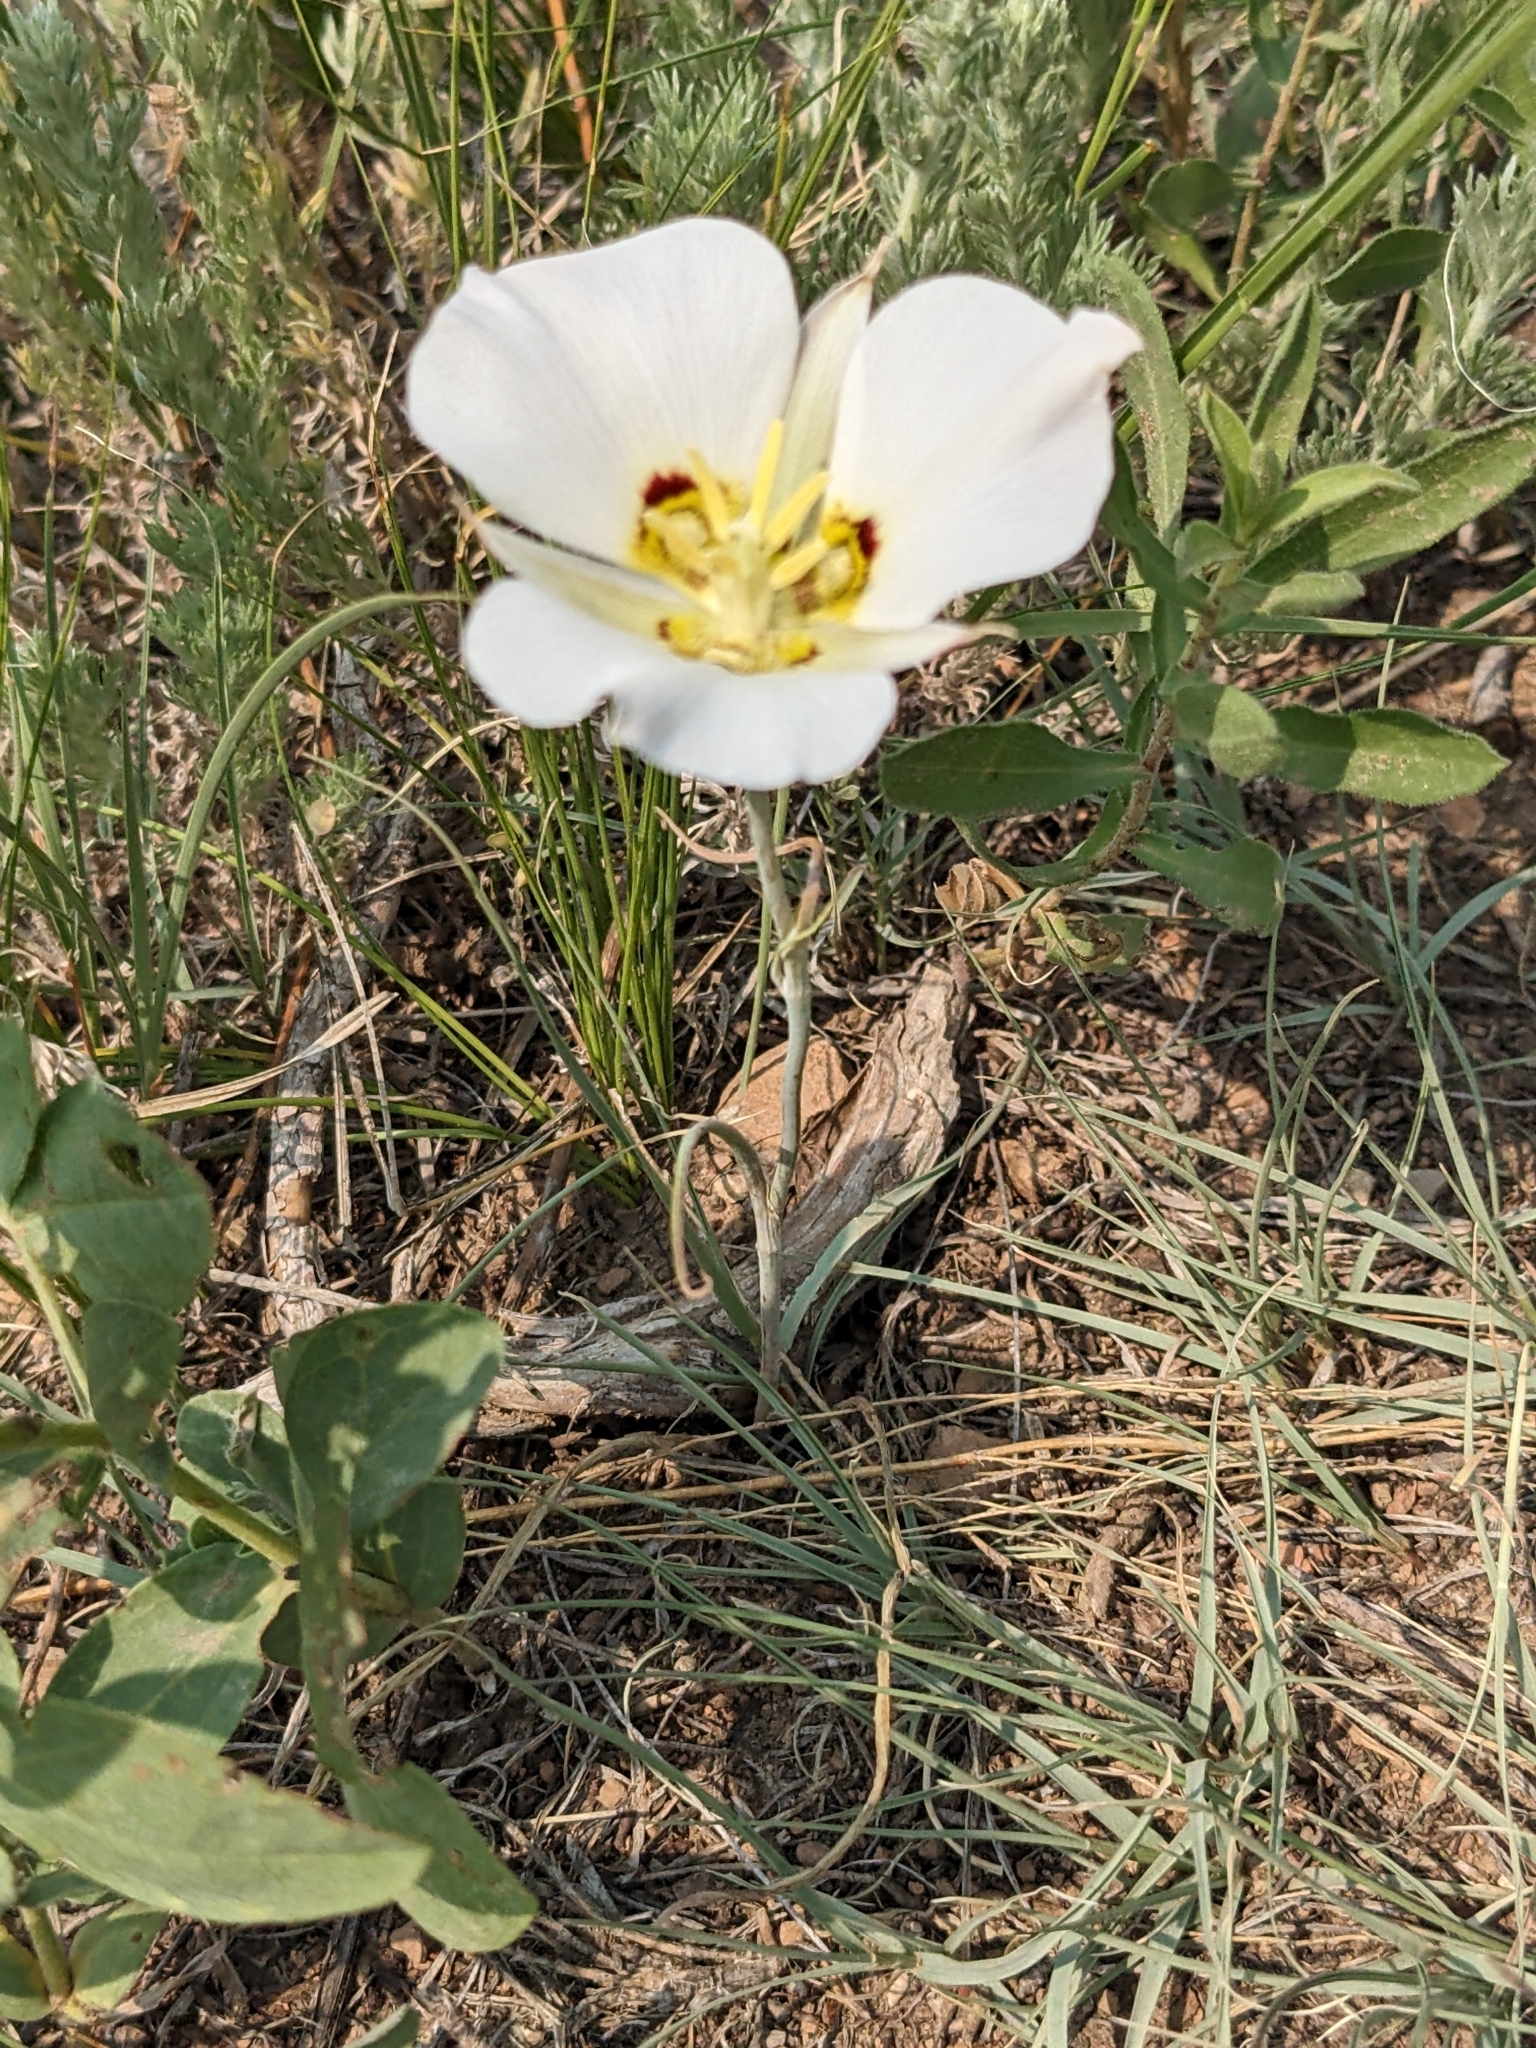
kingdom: Plantae
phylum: Tracheophyta
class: Liliopsida
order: Liliales
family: Liliaceae
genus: Calochortus
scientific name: Calochortus nuttallii
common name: Sego-lily
